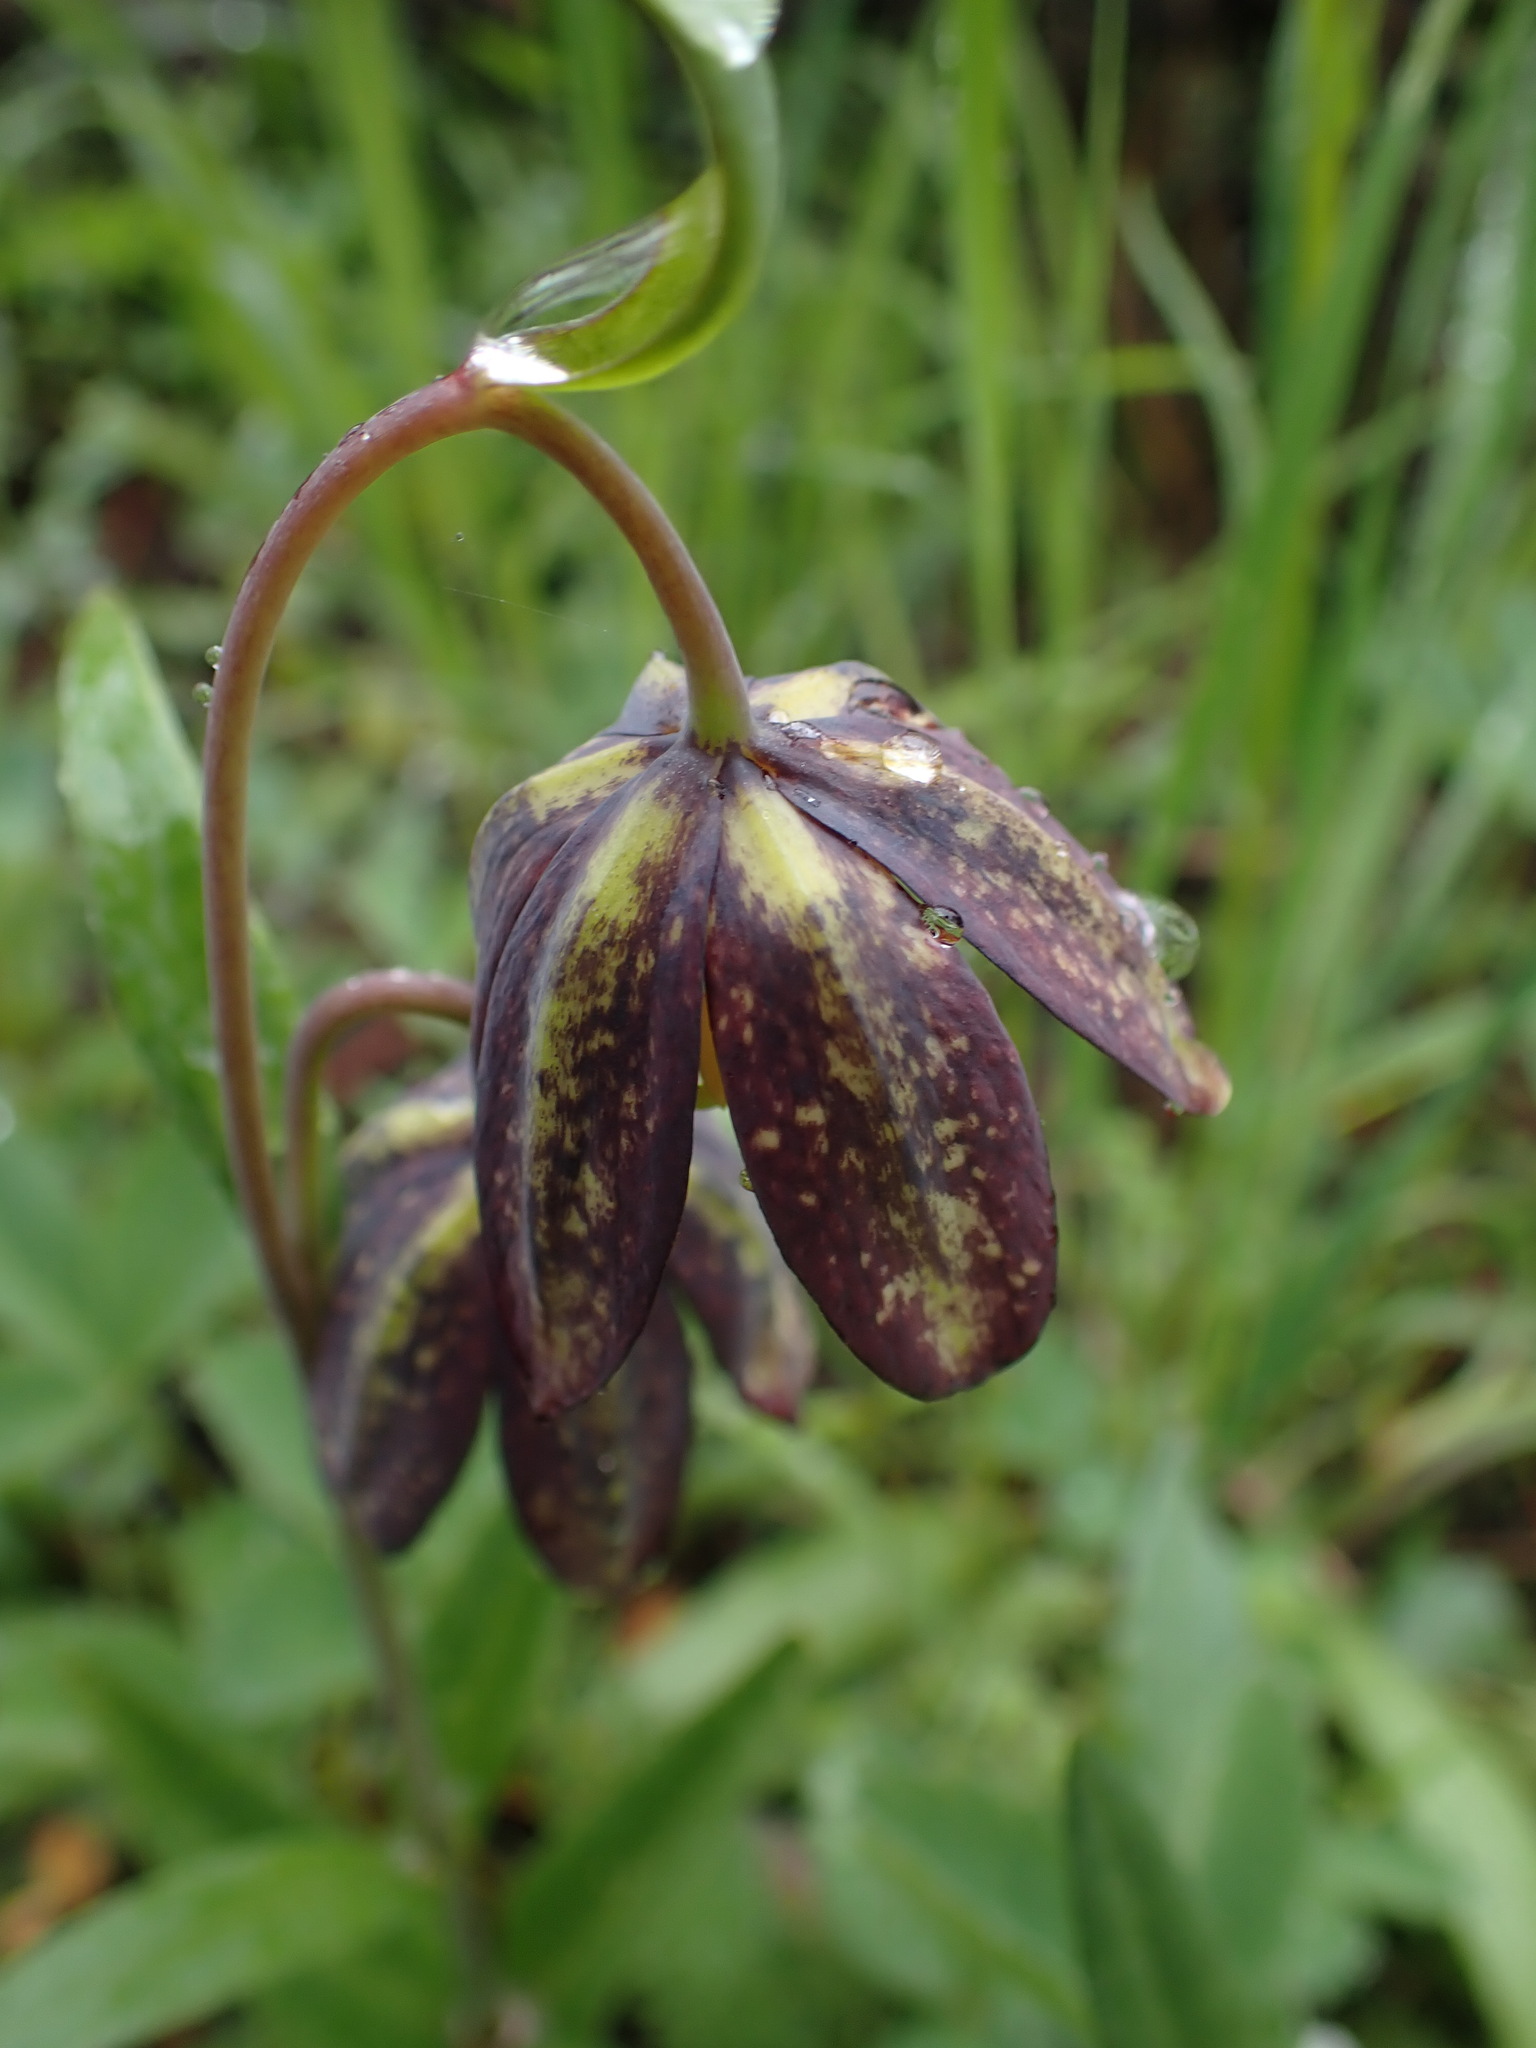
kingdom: Plantae
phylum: Tracheophyta
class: Liliopsida
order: Liliales
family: Liliaceae
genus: Fritillaria
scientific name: Fritillaria affinis
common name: Ojai fritillary
